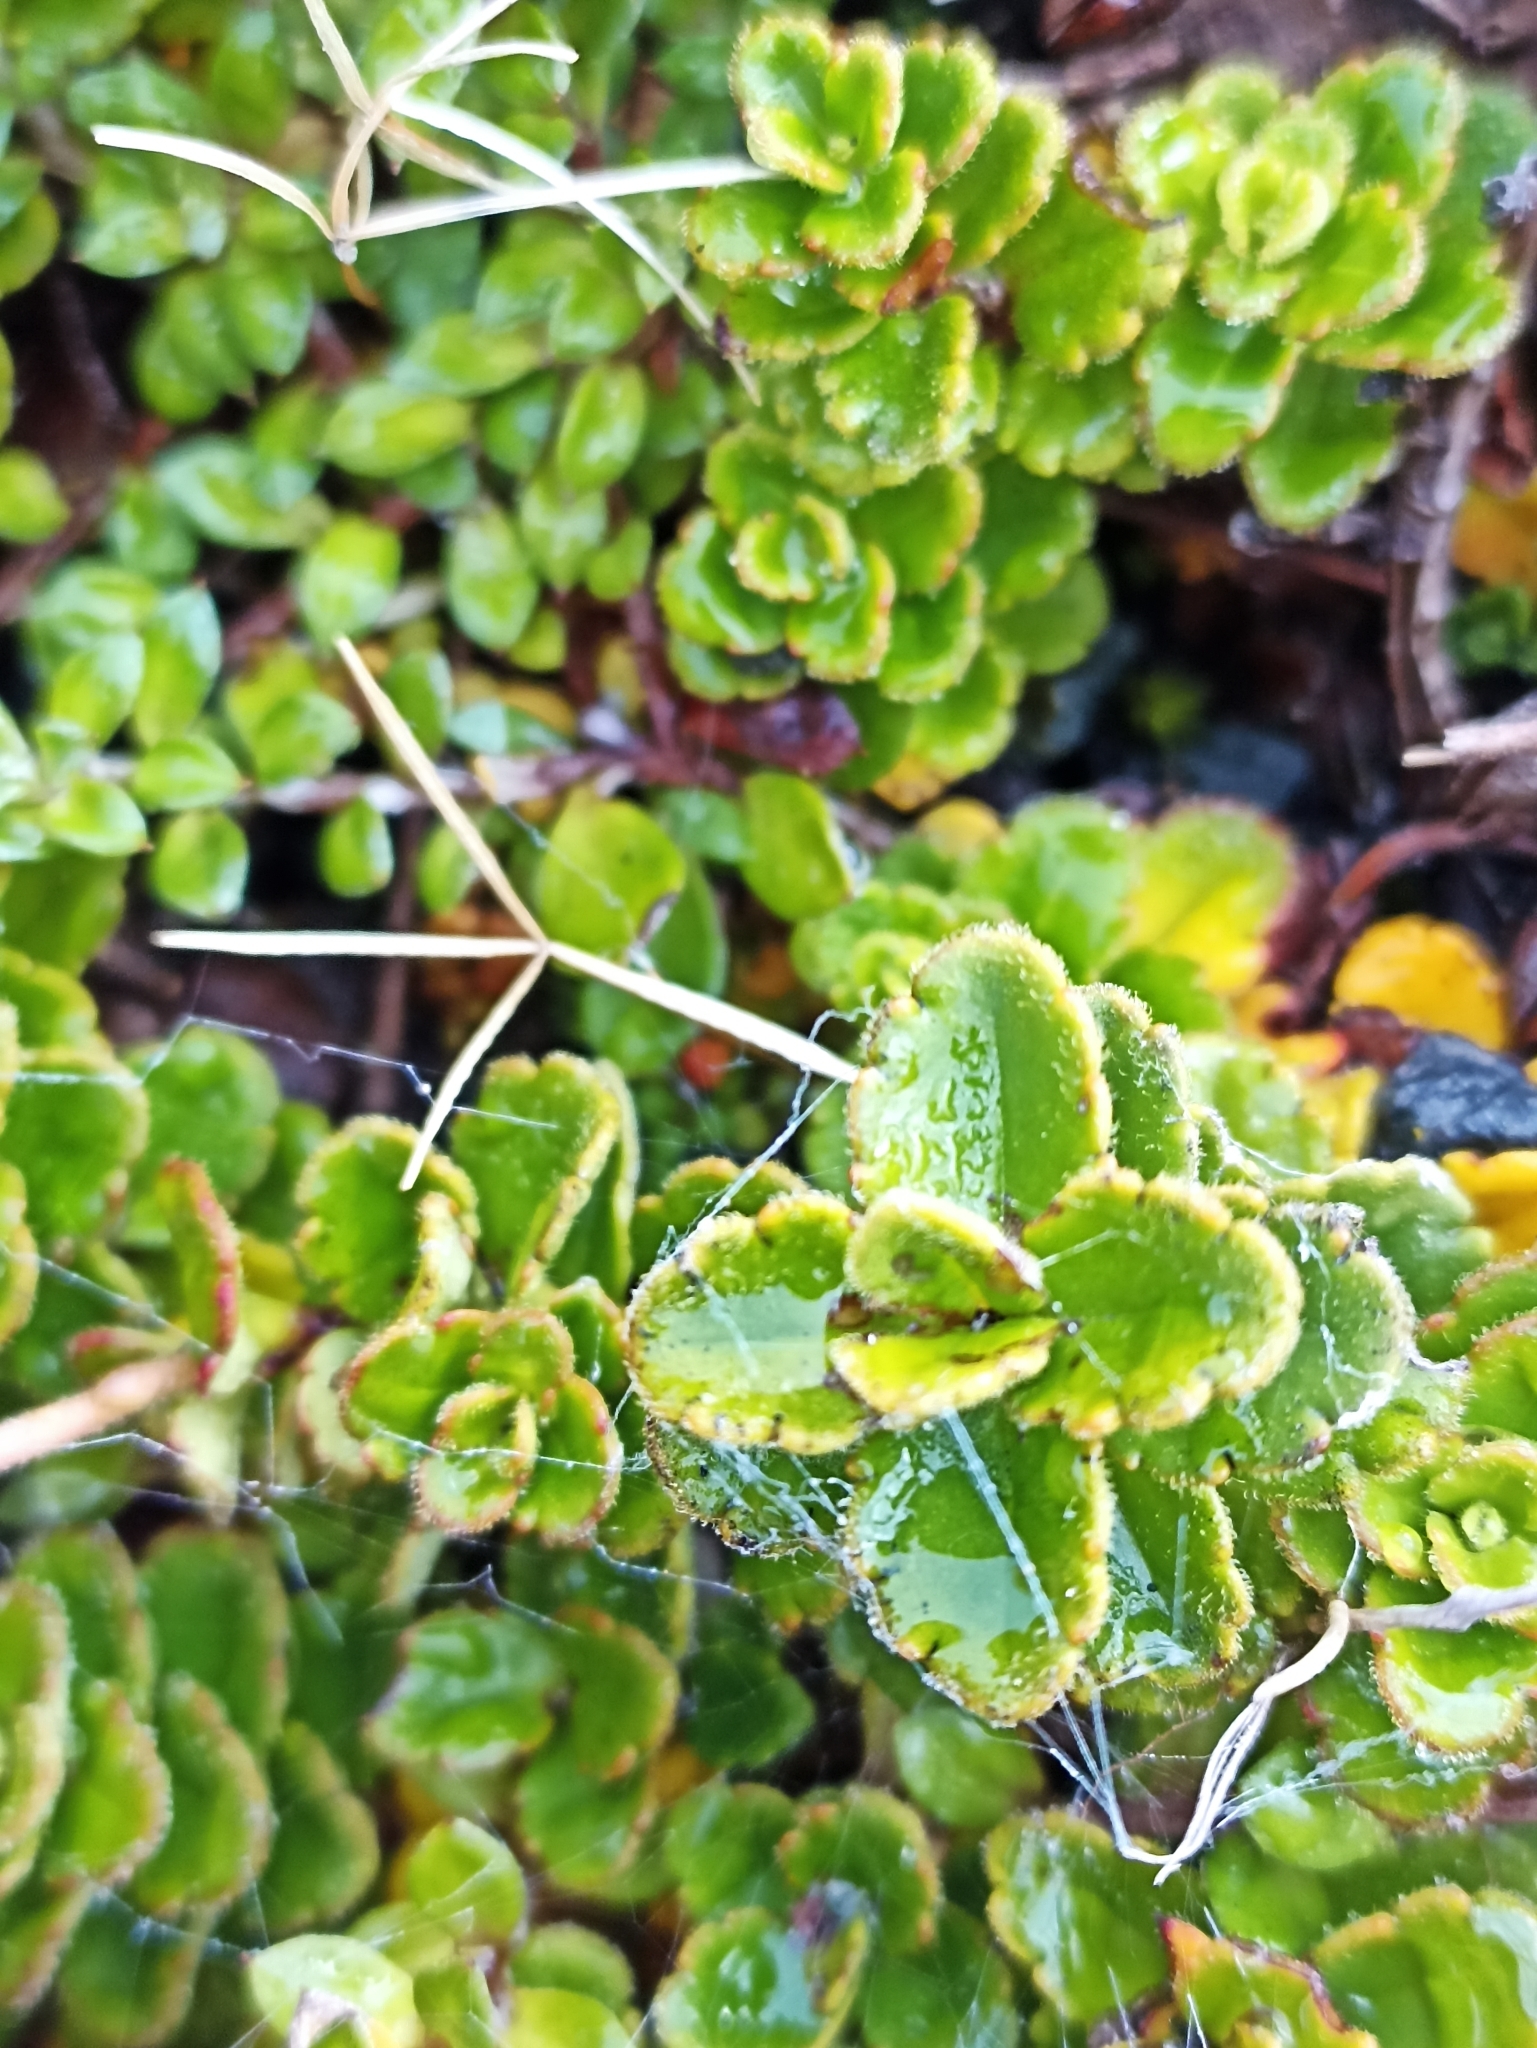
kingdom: Plantae
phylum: Tracheophyta
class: Magnoliopsida
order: Lamiales
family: Plantaginaceae
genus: Veronica
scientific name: Veronica hookeriana
